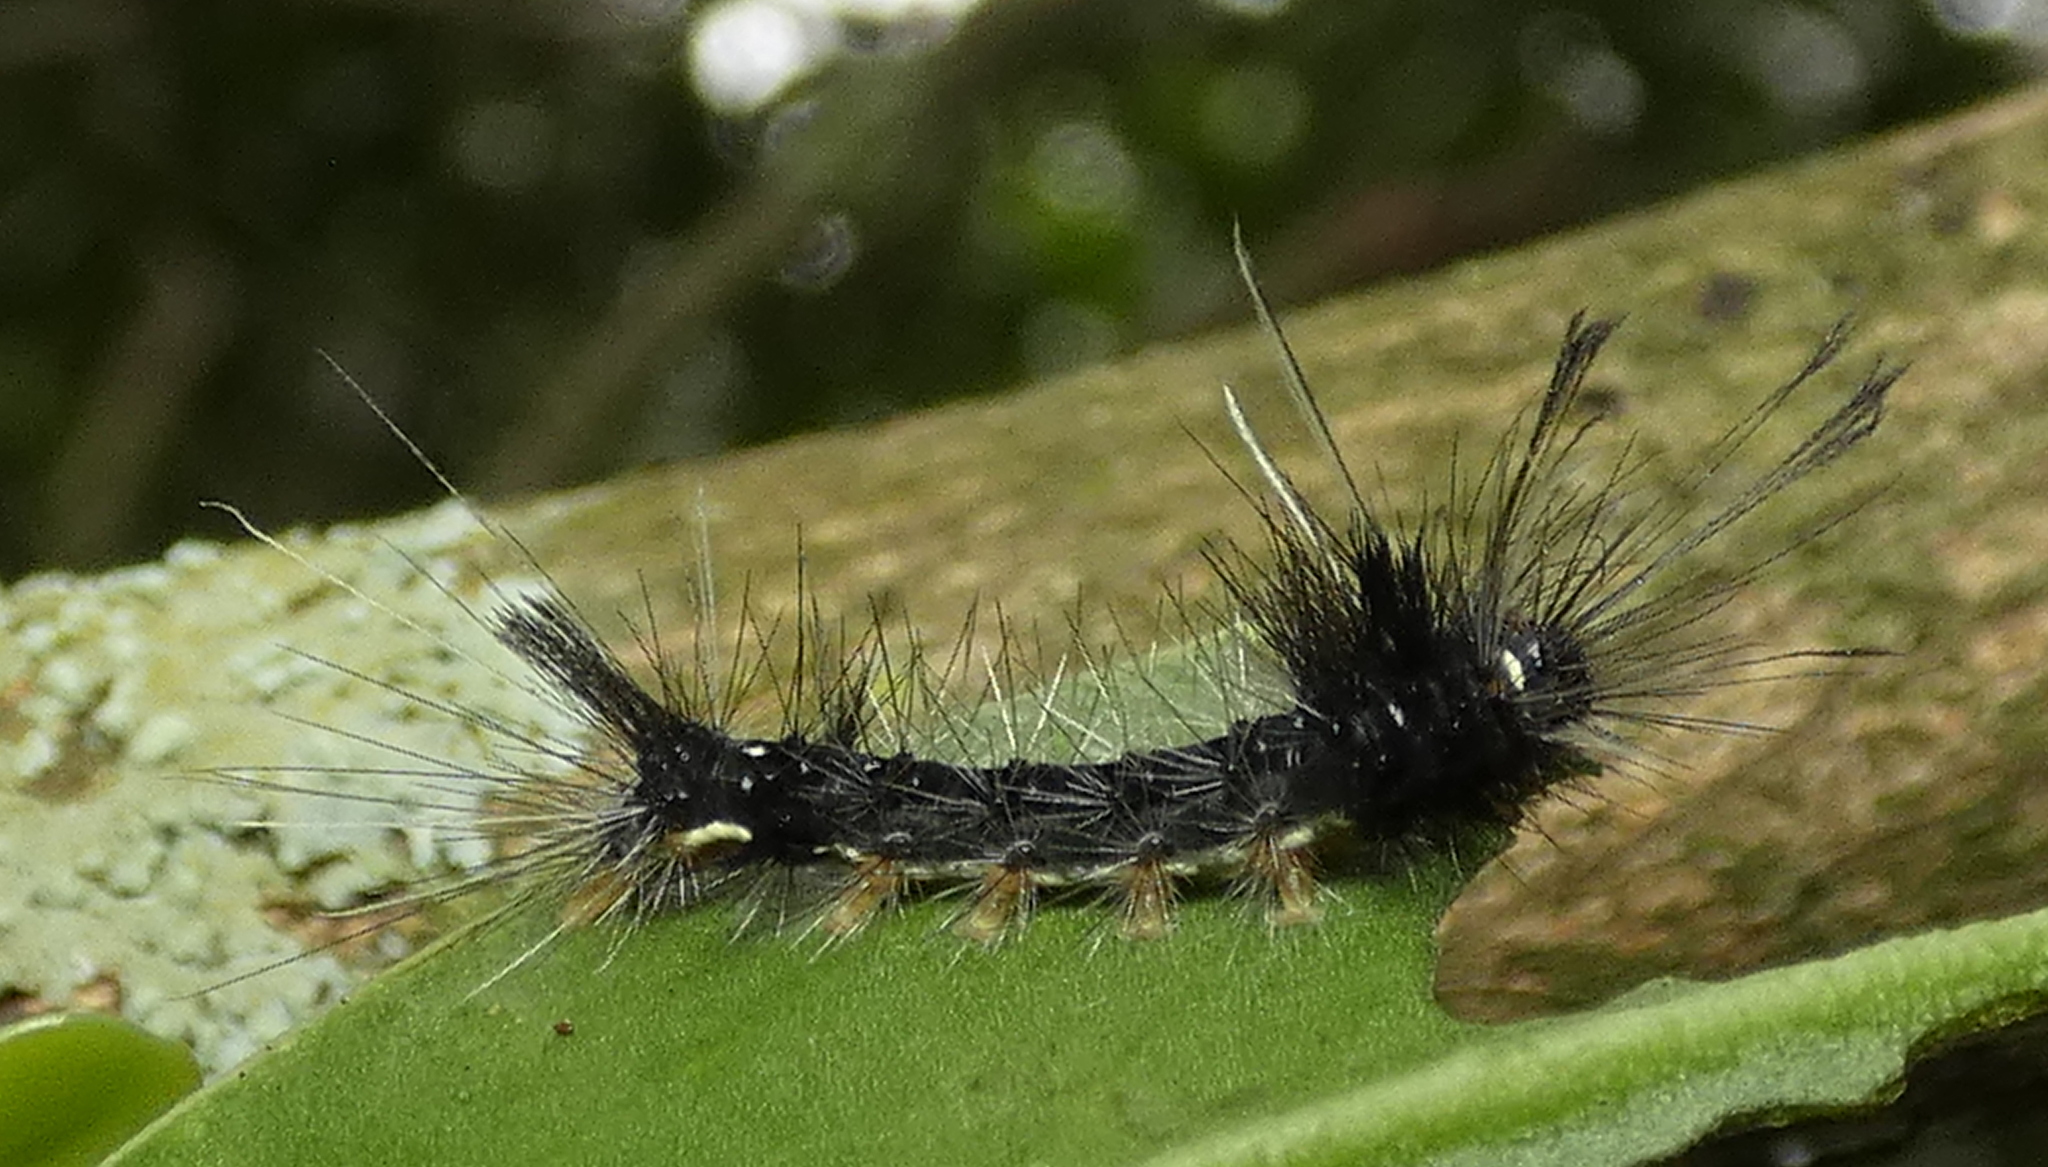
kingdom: Animalia
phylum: Arthropoda
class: Insecta
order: Lepidoptera
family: Erebidae
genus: Carales
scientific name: Carales astur
